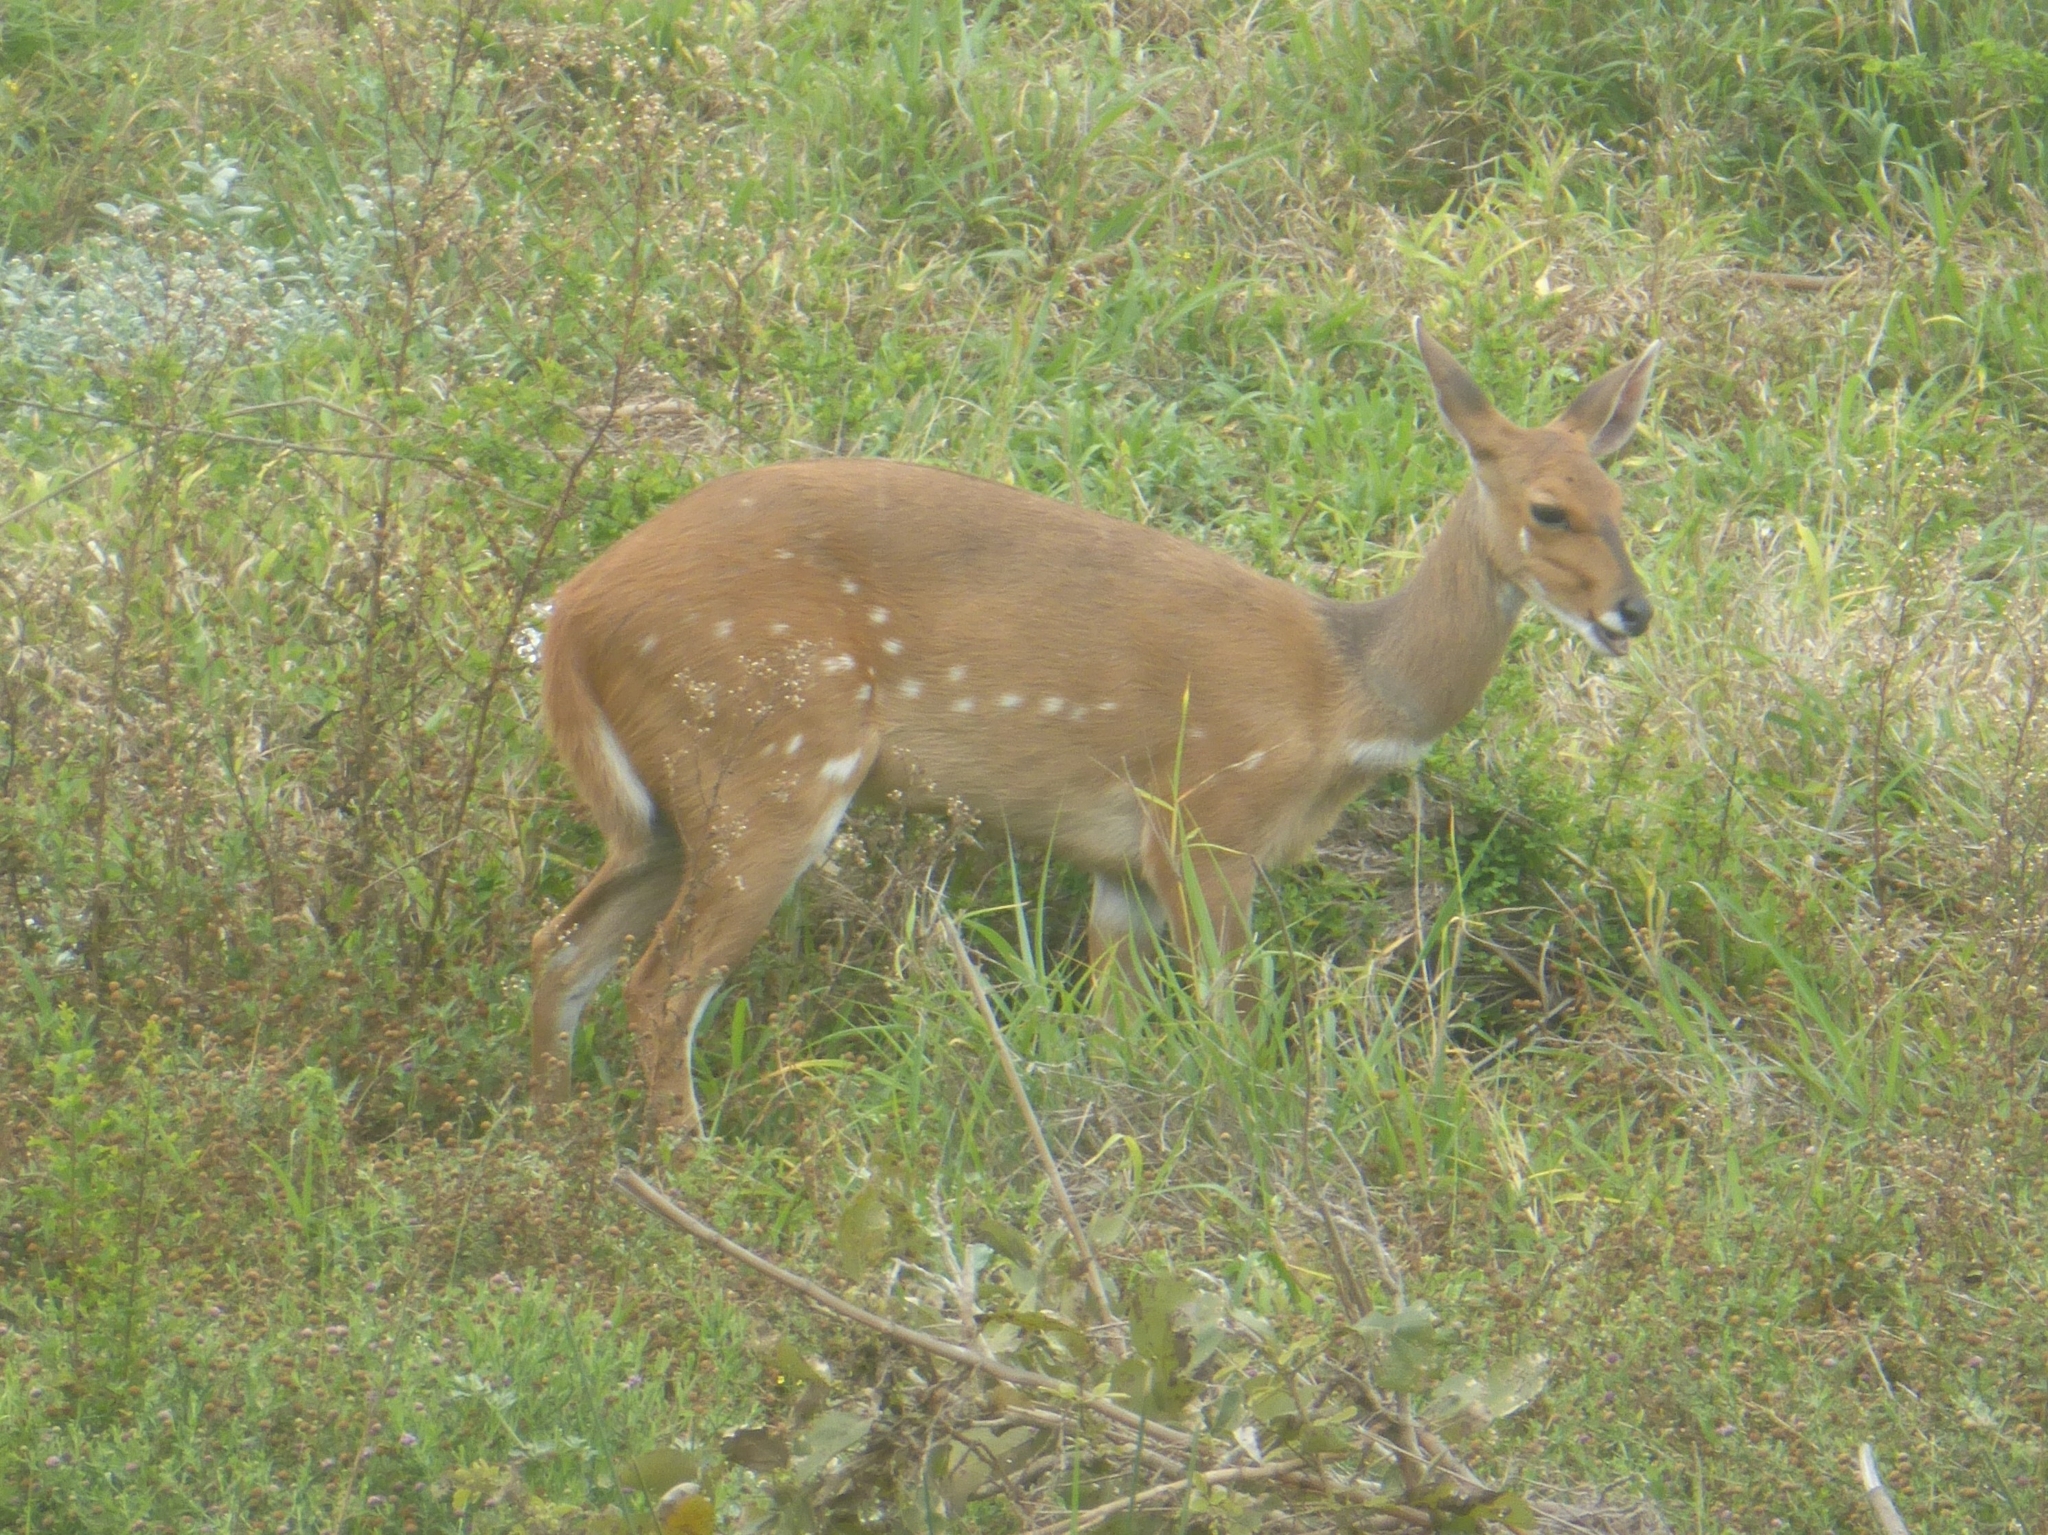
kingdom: Animalia
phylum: Chordata
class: Mammalia
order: Artiodactyla
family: Bovidae
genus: Tragelaphus
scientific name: Tragelaphus scriptus
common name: Bushbuck
